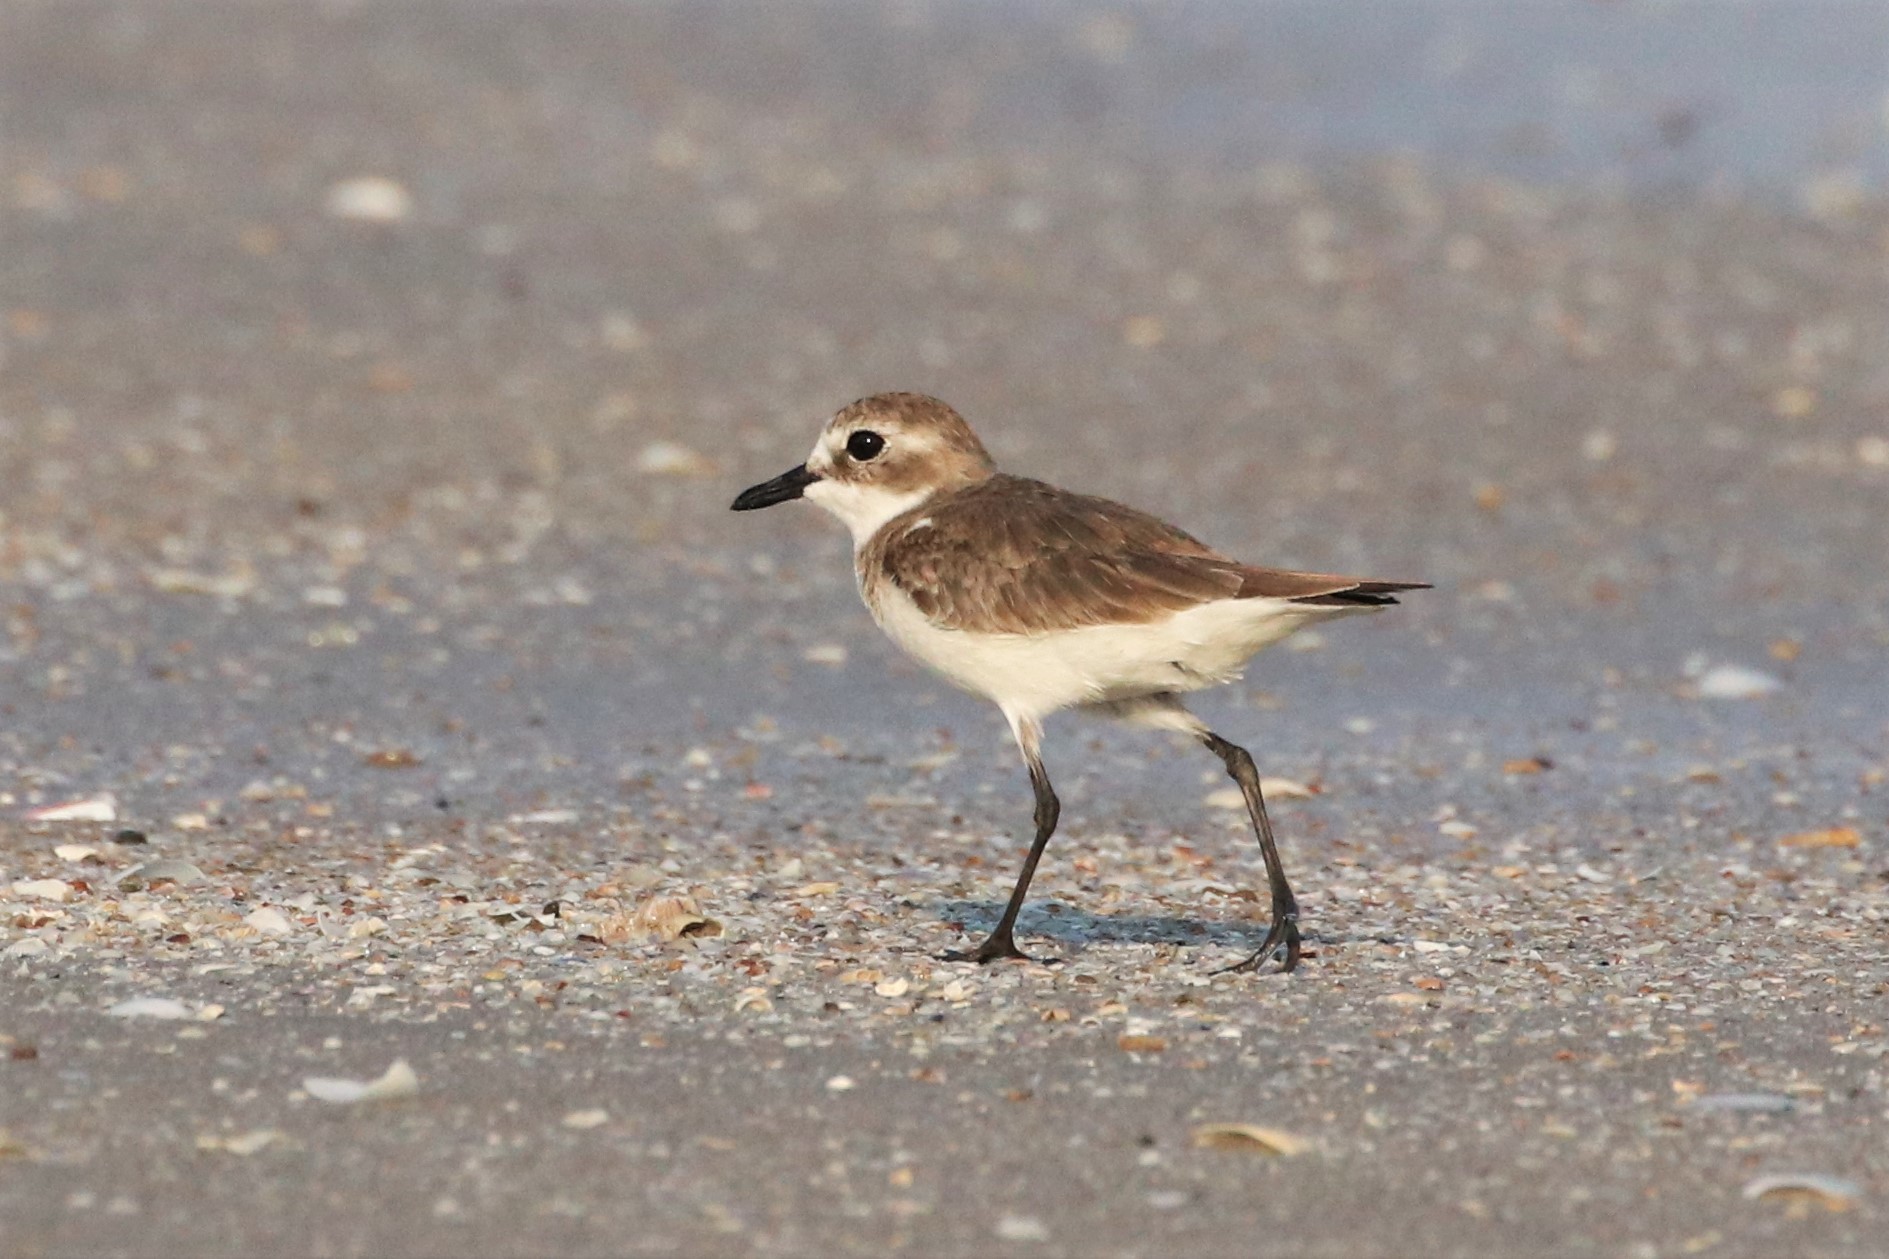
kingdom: Animalia
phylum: Chordata
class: Aves
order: Charadriiformes
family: Charadriidae
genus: Charadrius
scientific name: Charadrius leschenaultii
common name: Greater sand plover
